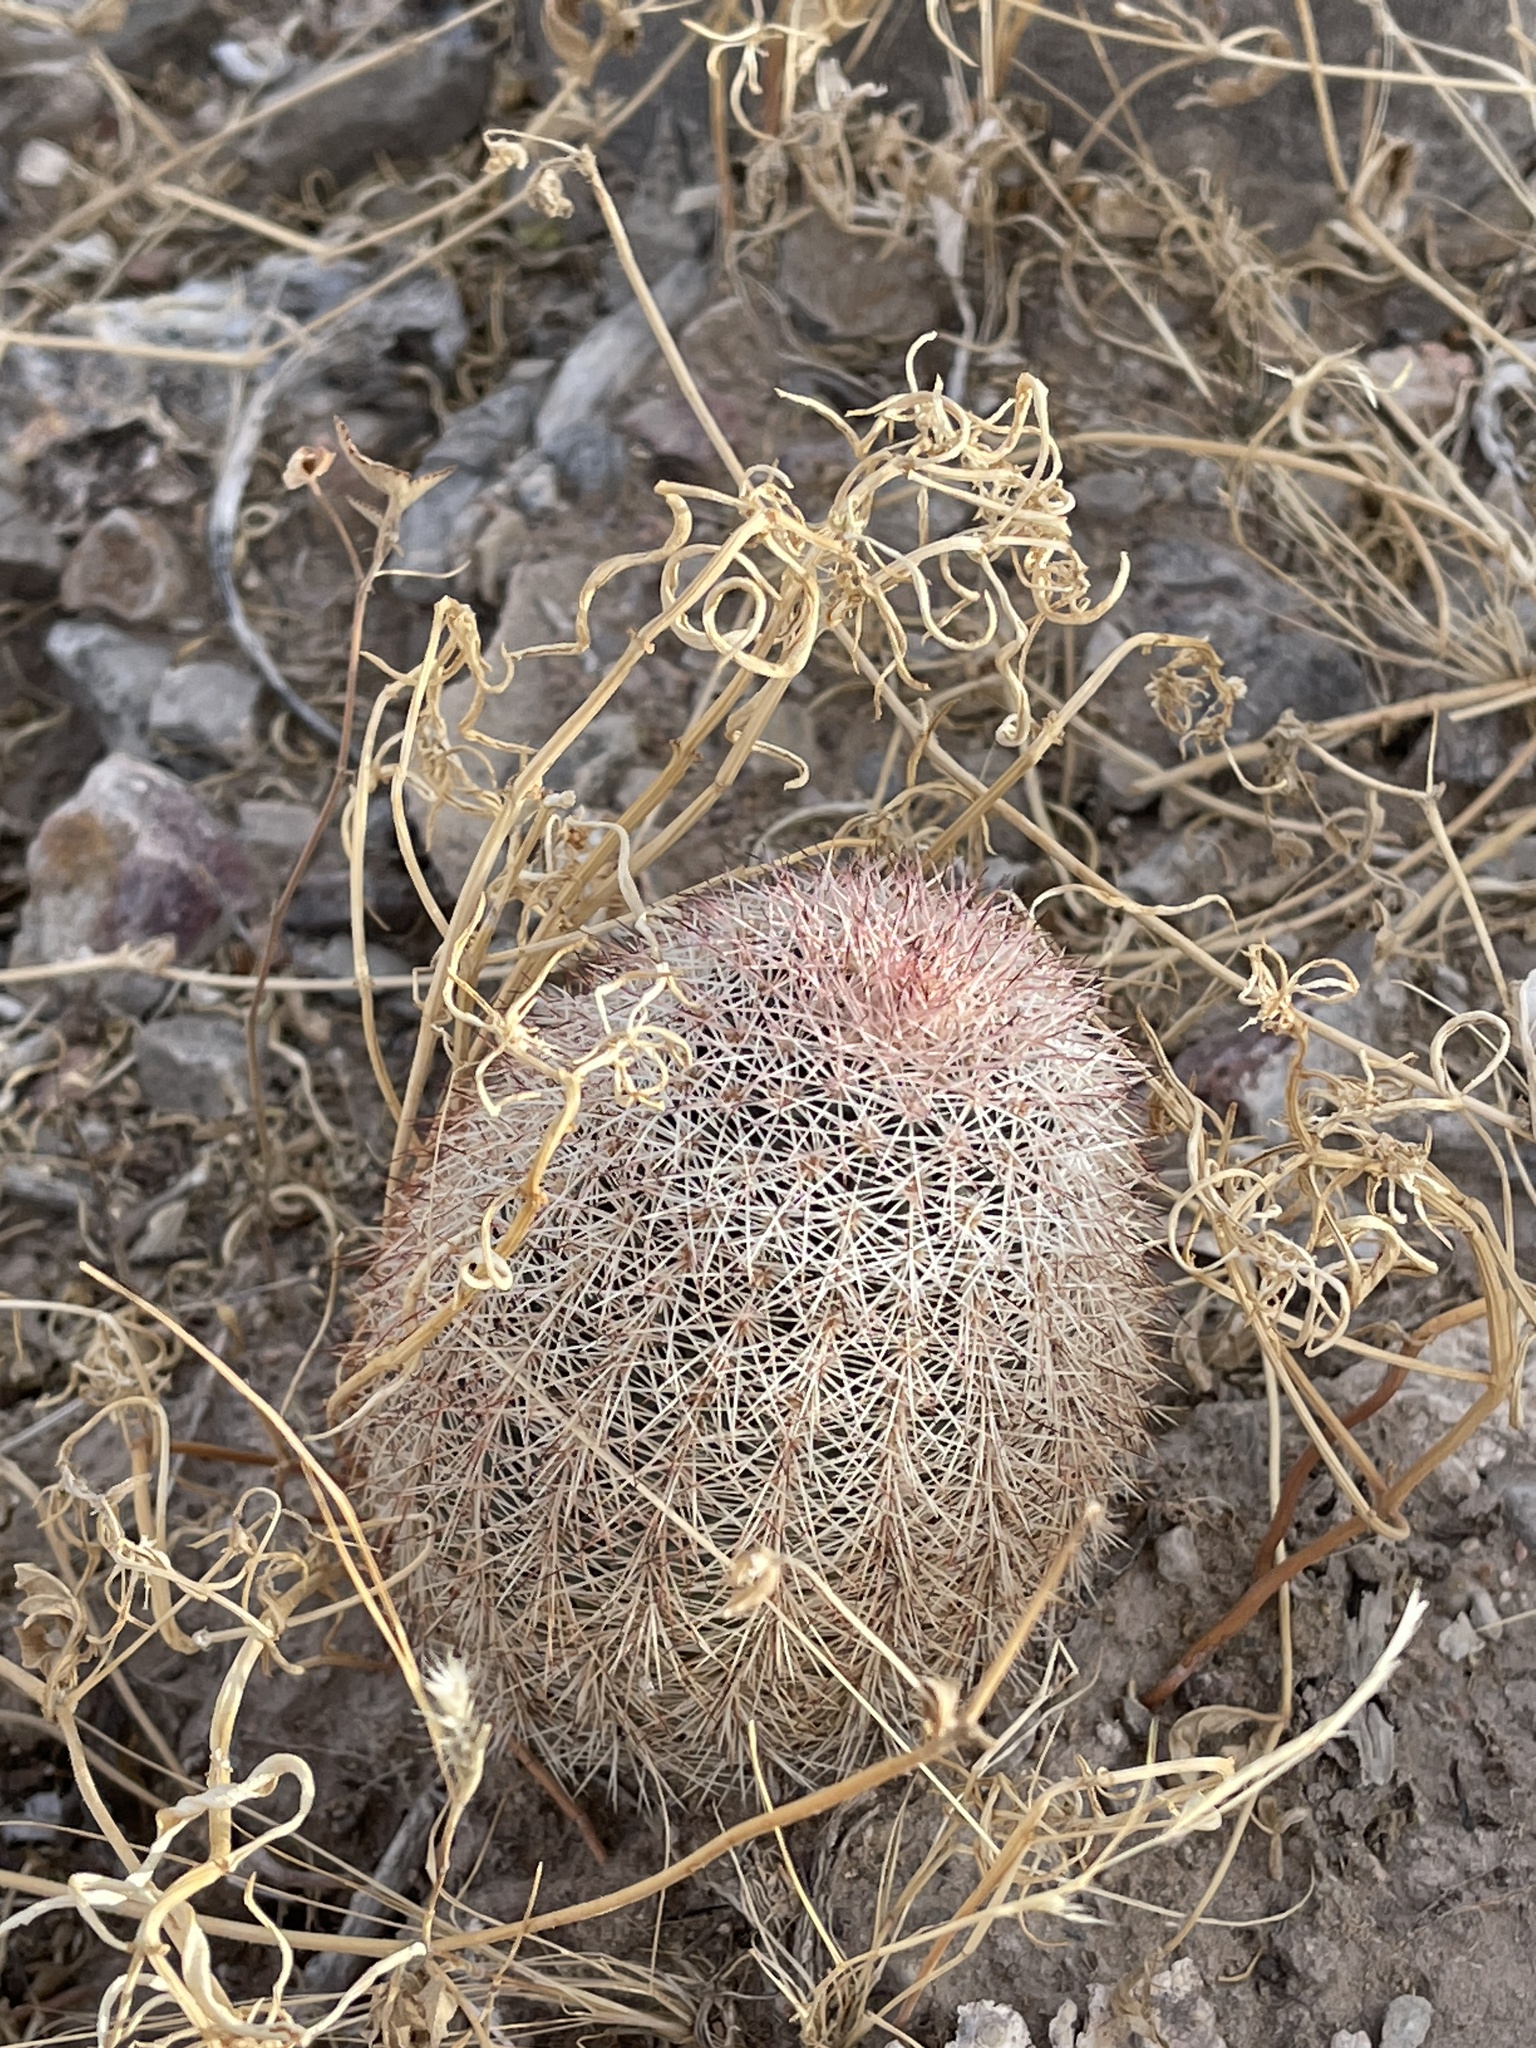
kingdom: Plantae
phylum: Tracheophyta
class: Magnoliopsida
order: Caryophyllales
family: Cactaceae
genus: Echinocereus
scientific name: Echinocereus dasyacanthus
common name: Spiny hedgehog cactus
